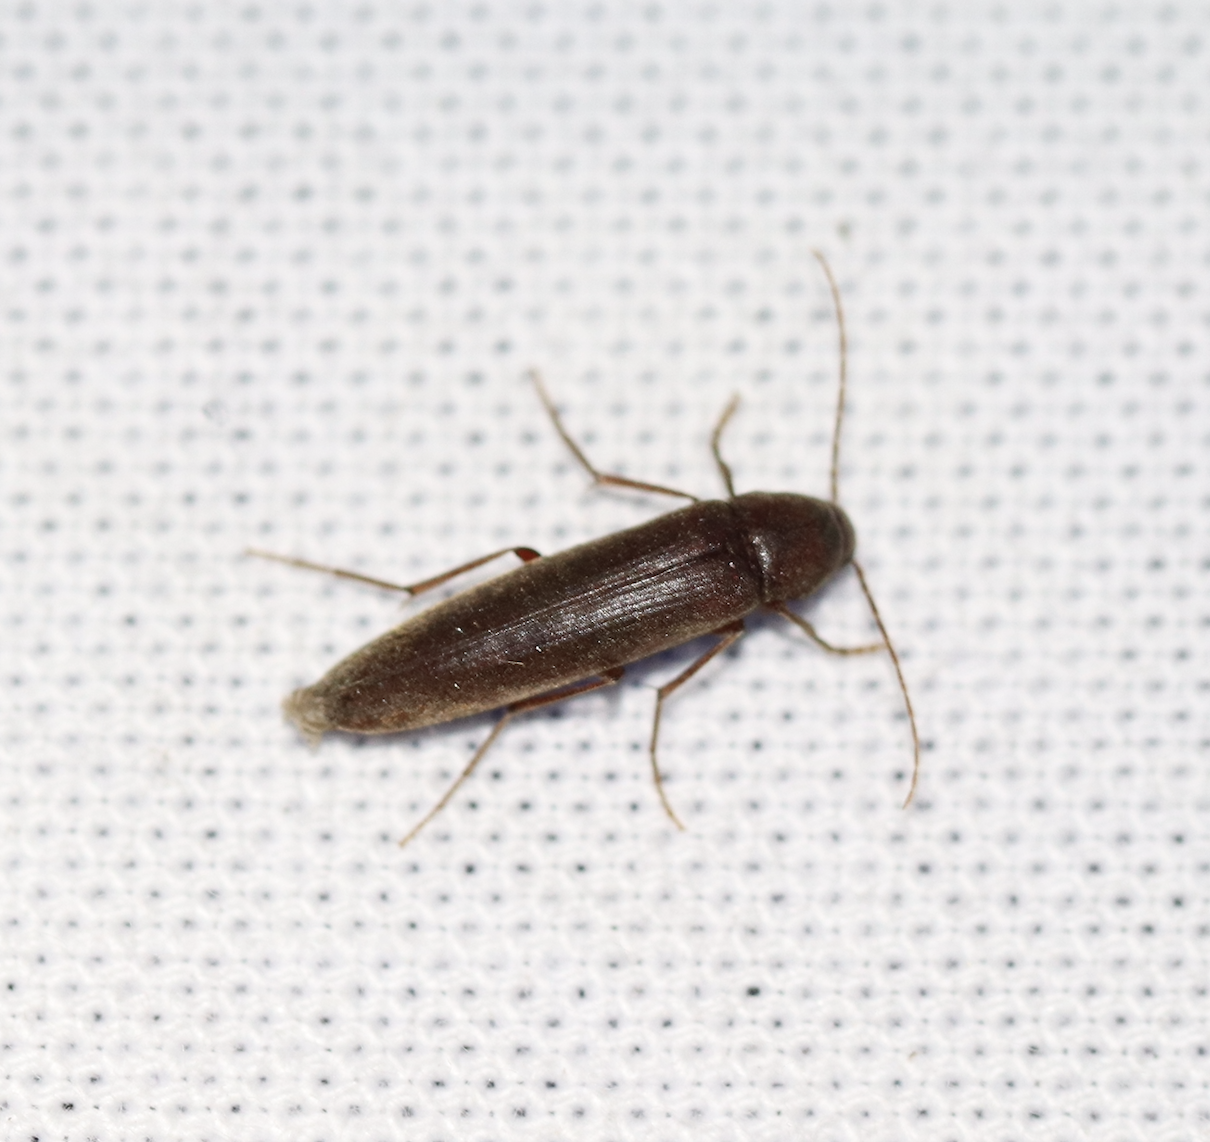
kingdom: Animalia
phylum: Arthropoda
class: Insecta
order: Coleoptera
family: Melandryidae
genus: Serropalpus
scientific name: Serropalpus substriatus
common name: Striated false darkling beetle
